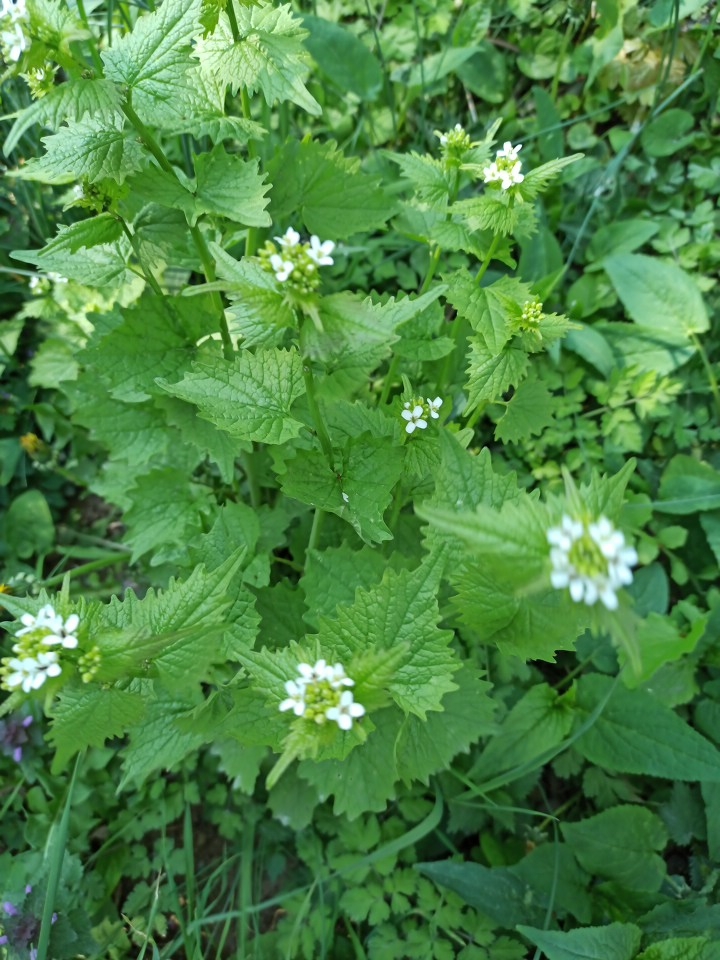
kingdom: Plantae
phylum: Tracheophyta
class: Magnoliopsida
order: Brassicales
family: Brassicaceae
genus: Alliaria
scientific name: Alliaria petiolata
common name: Garlic mustard
